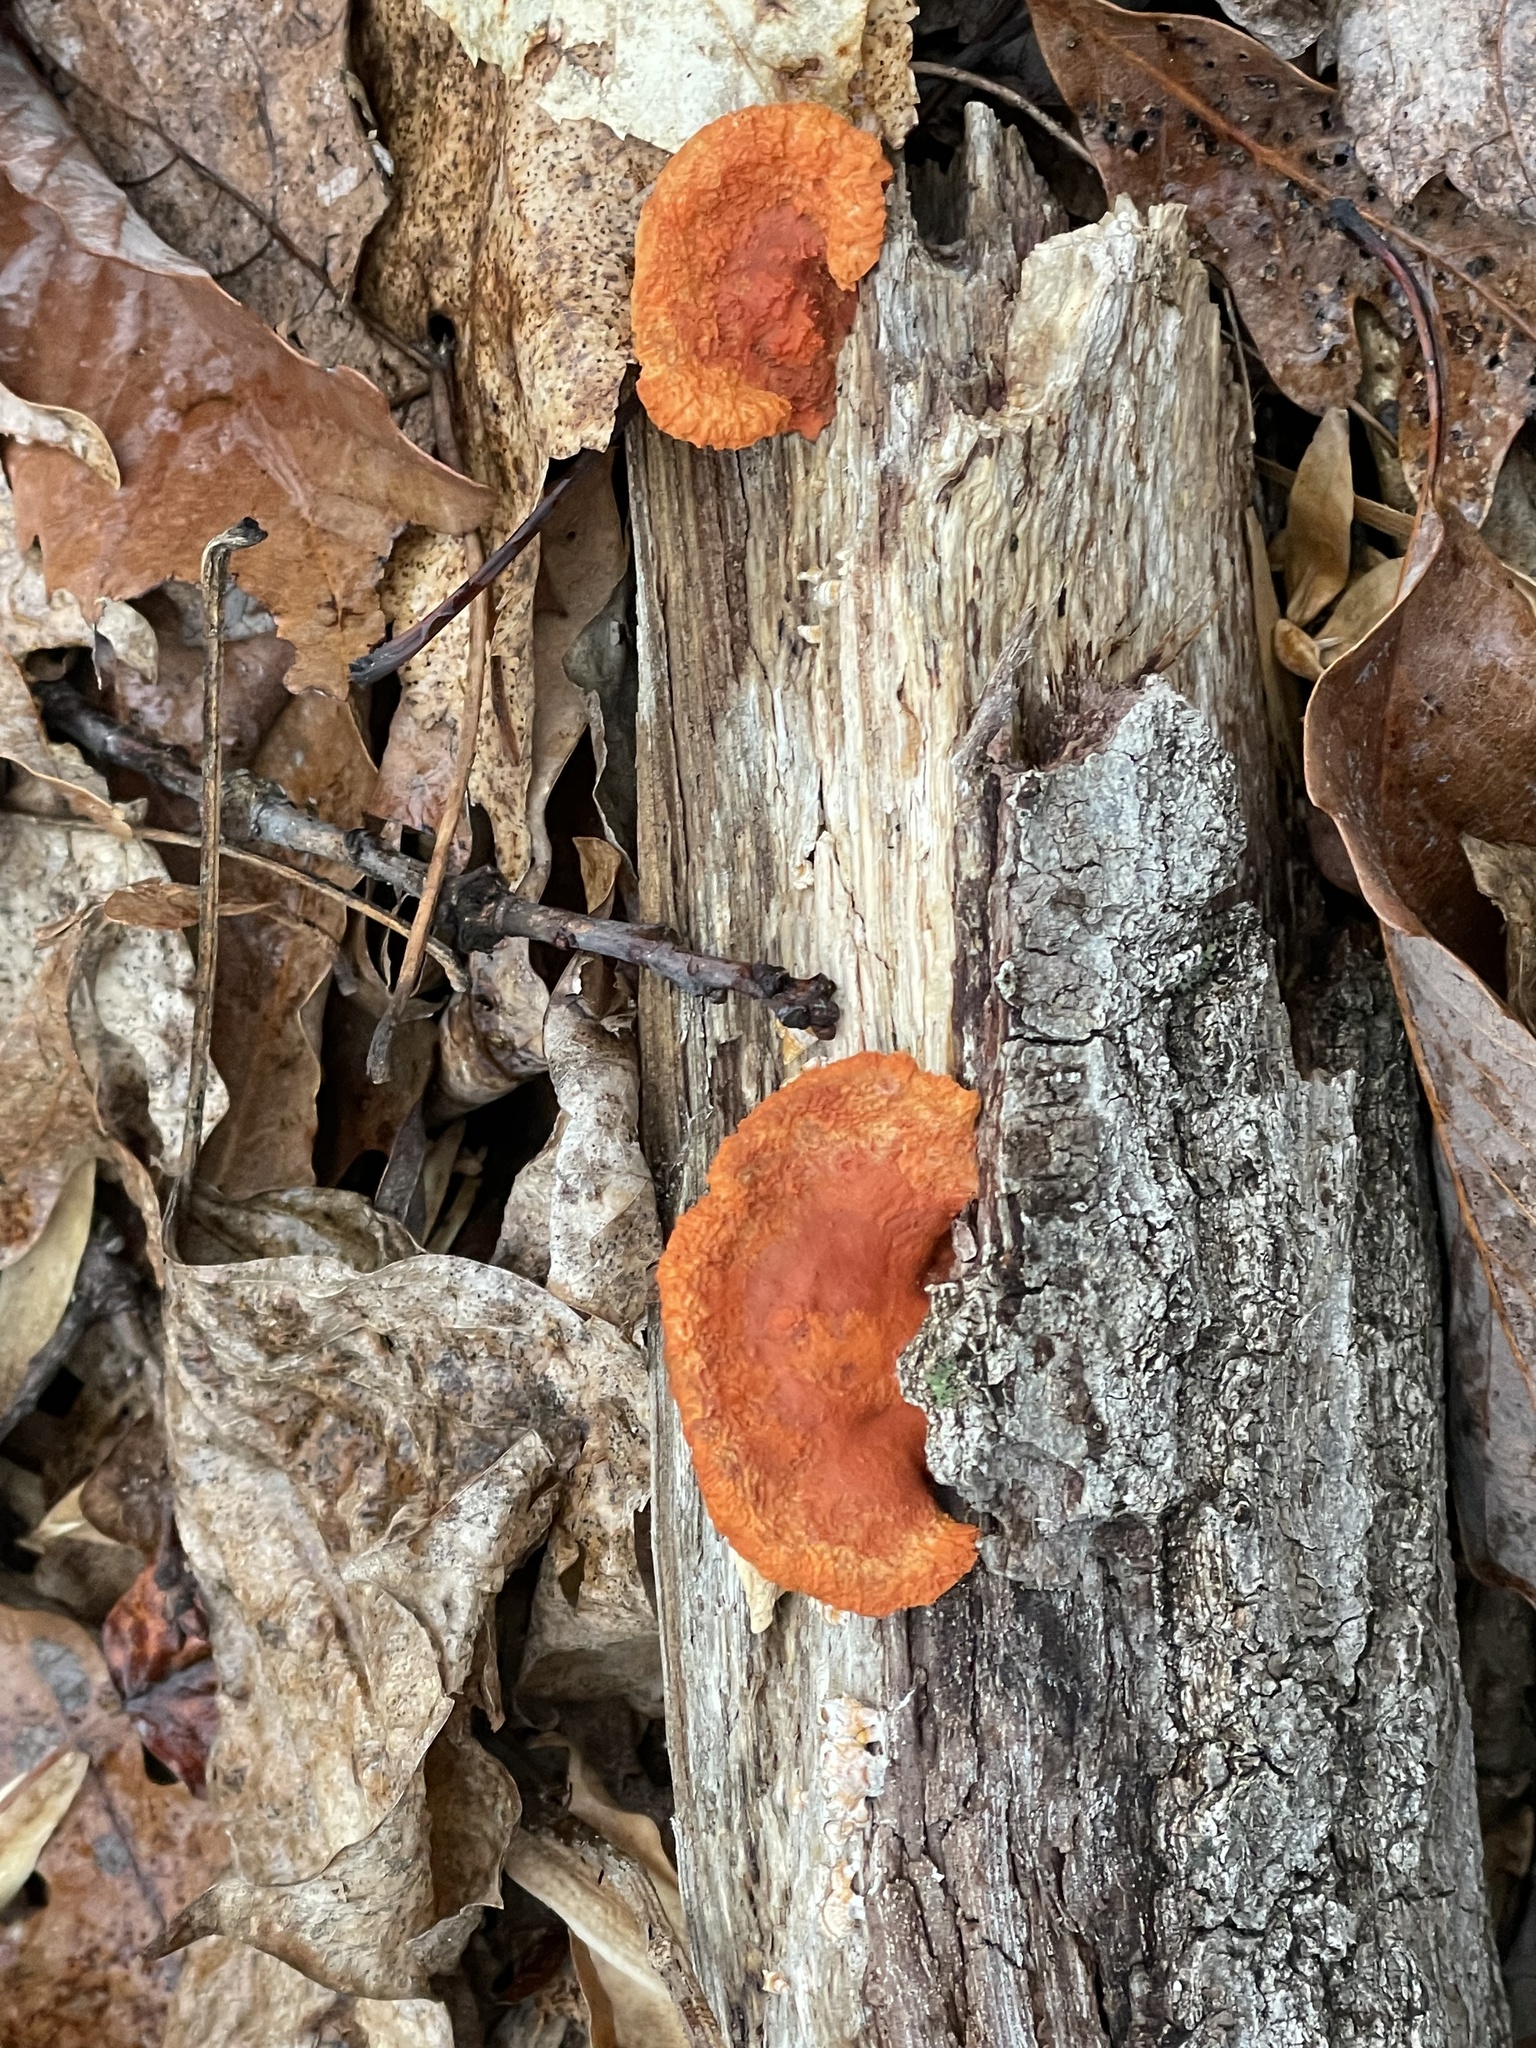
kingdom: Fungi
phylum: Basidiomycota
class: Agaricomycetes
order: Polyporales
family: Polyporaceae
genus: Trametes
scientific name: Trametes cinnabarina
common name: Northern cinnabar polypore
